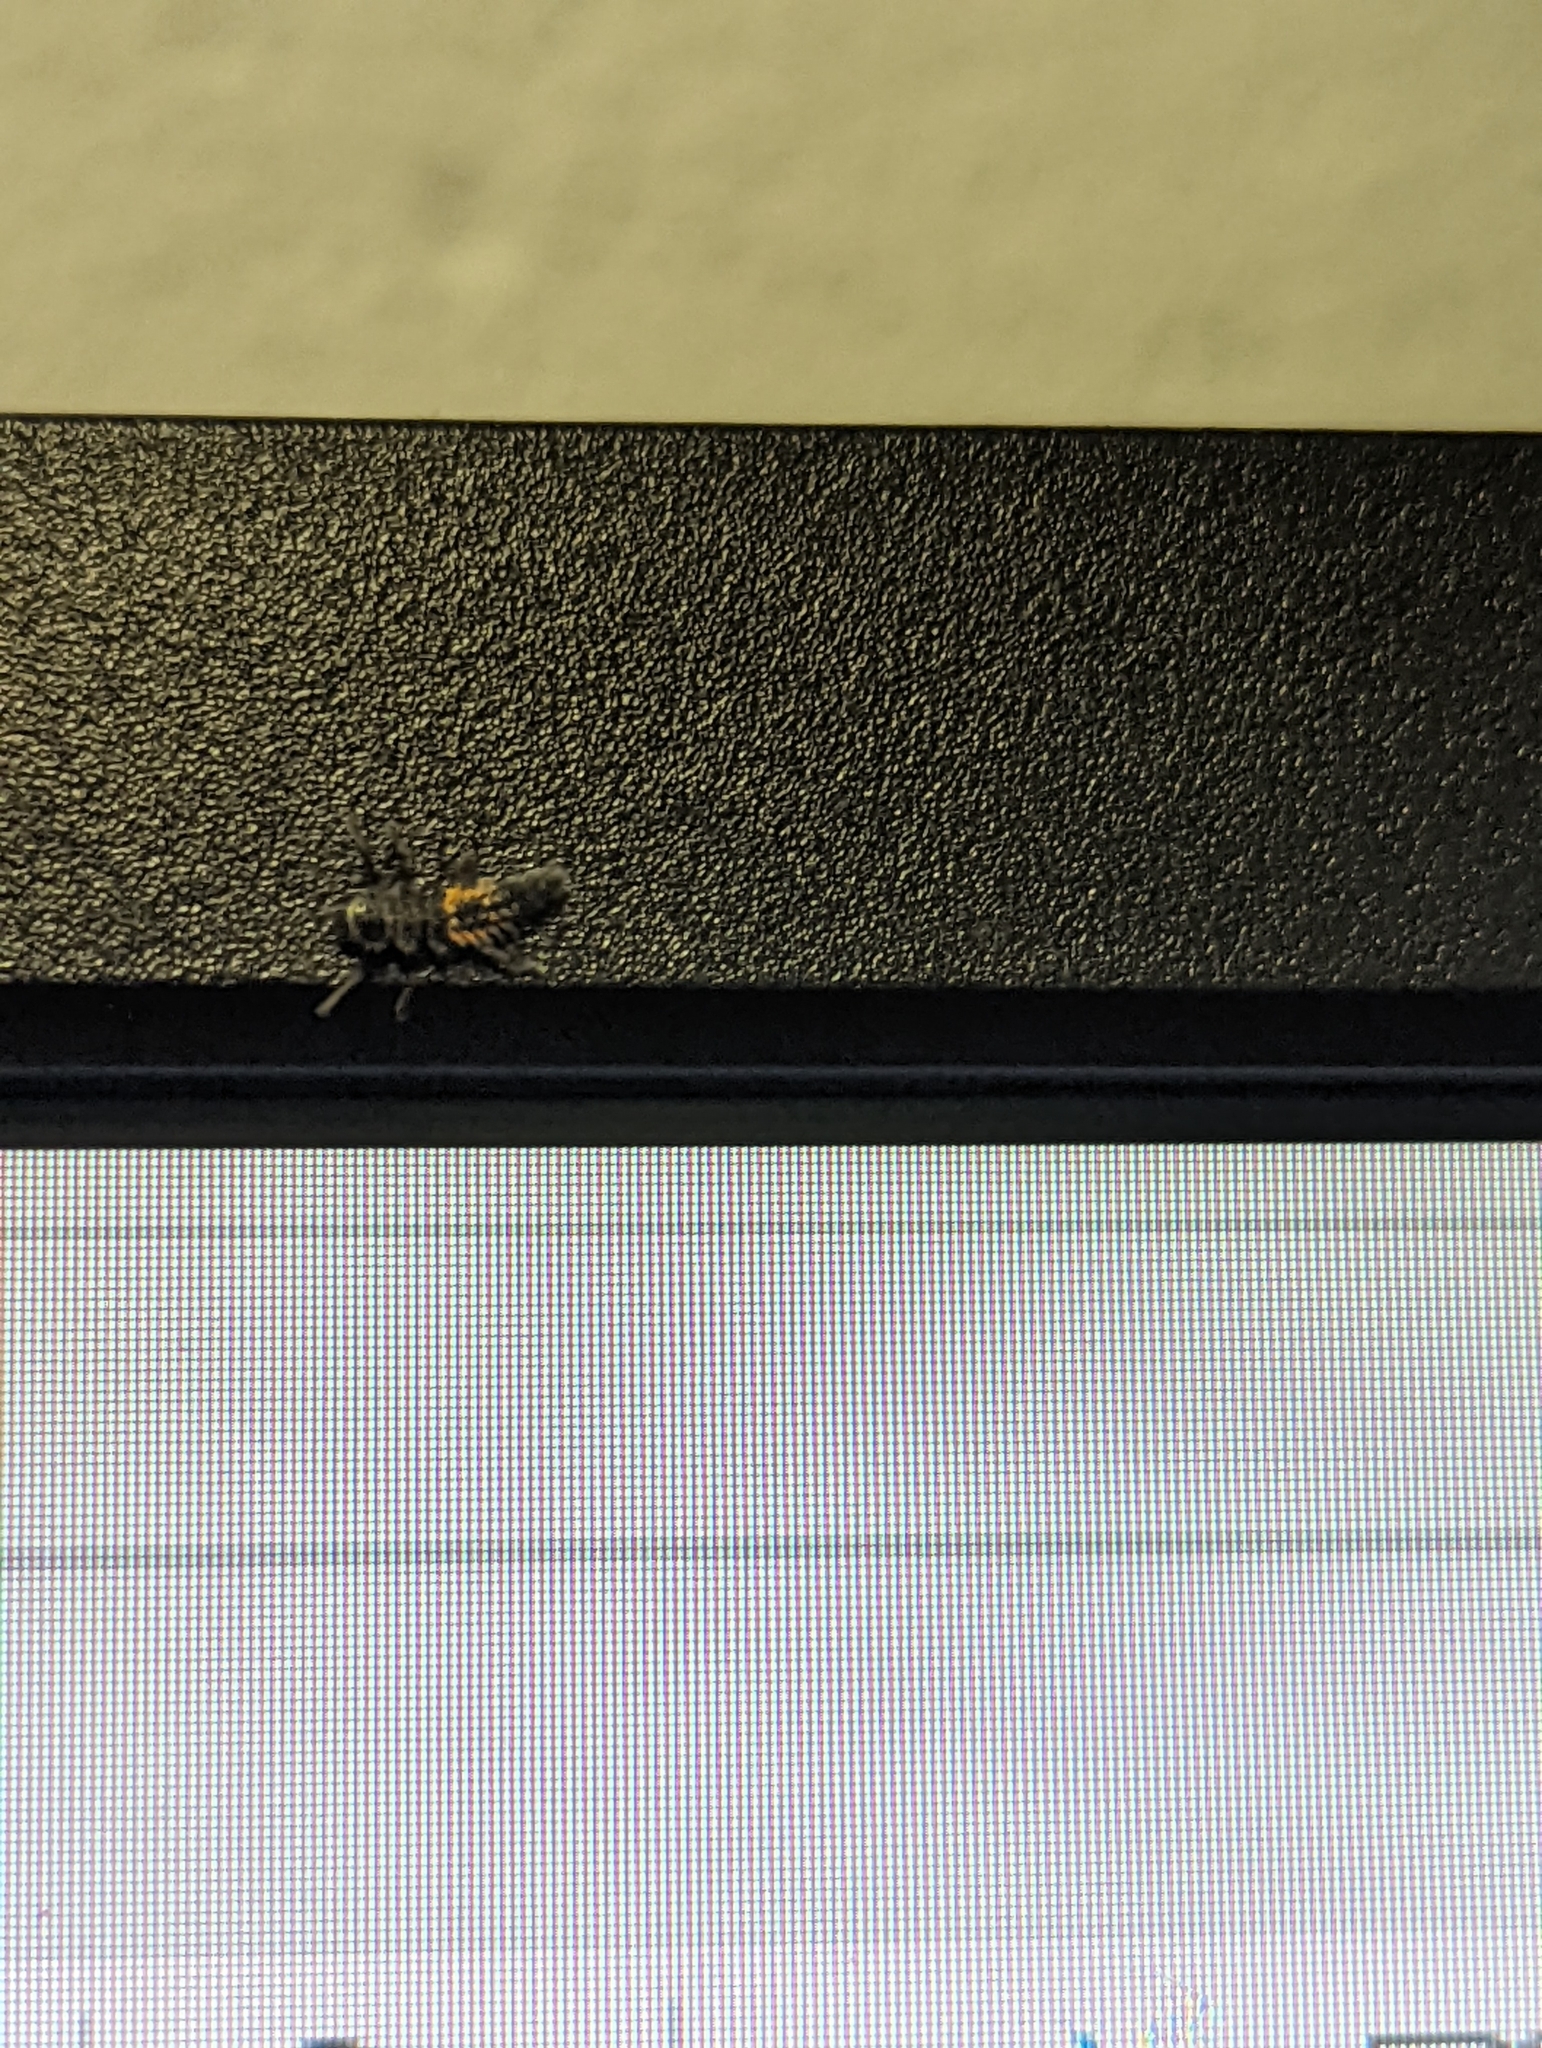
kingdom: Animalia
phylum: Arthropoda
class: Insecta
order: Coleoptera
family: Coccinellidae
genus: Harmonia
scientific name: Harmonia axyridis
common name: Harlequin ladybird
